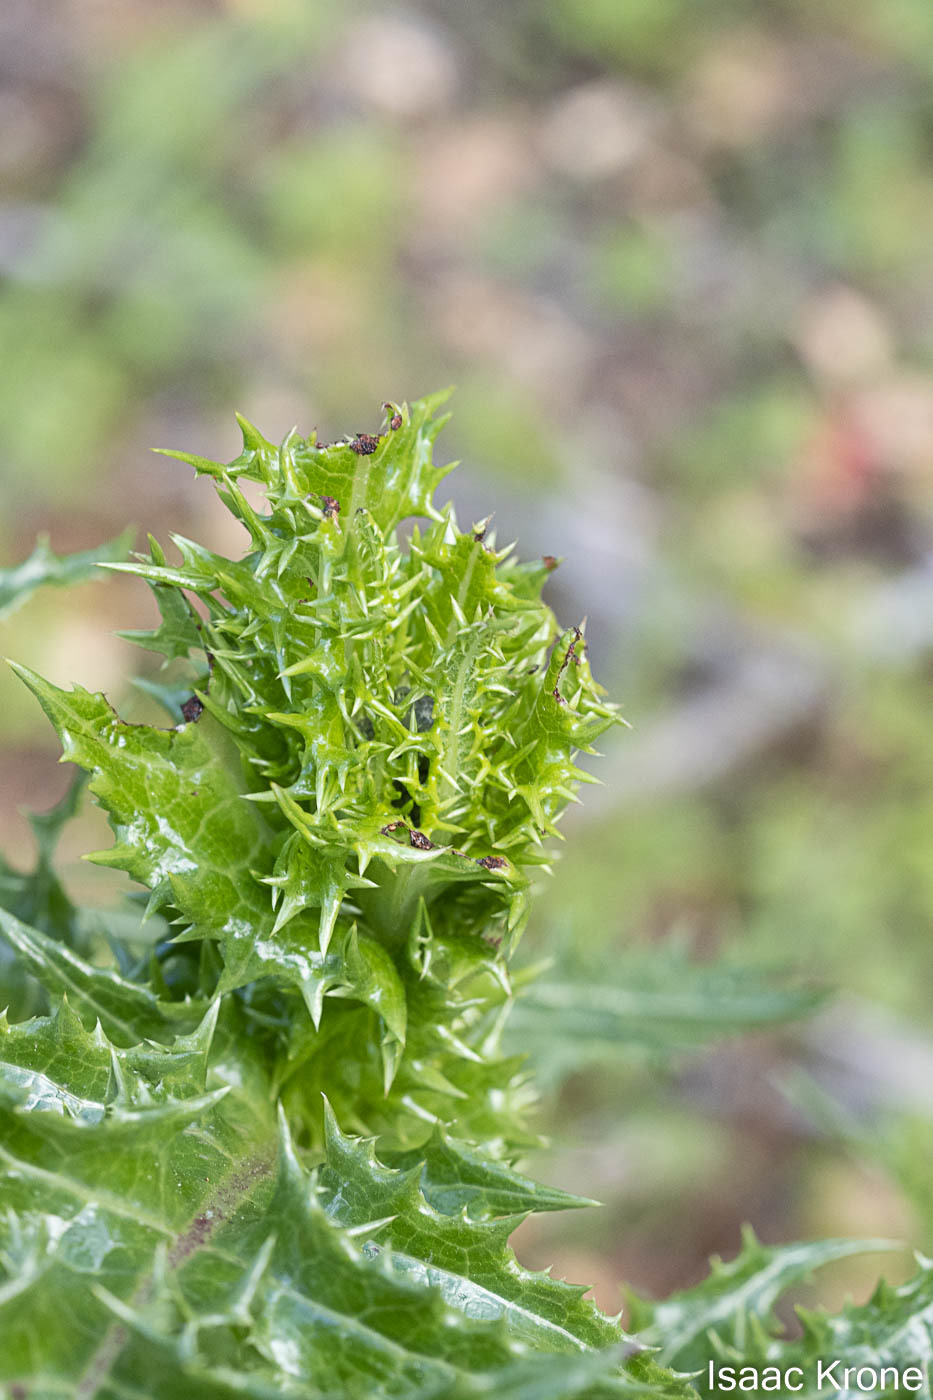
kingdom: Plantae
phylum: Tracheophyta
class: Magnoliopsida
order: Asterales
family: Asteraceae
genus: Sonchus
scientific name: Sonchus asper
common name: Prickly sow-thistle
